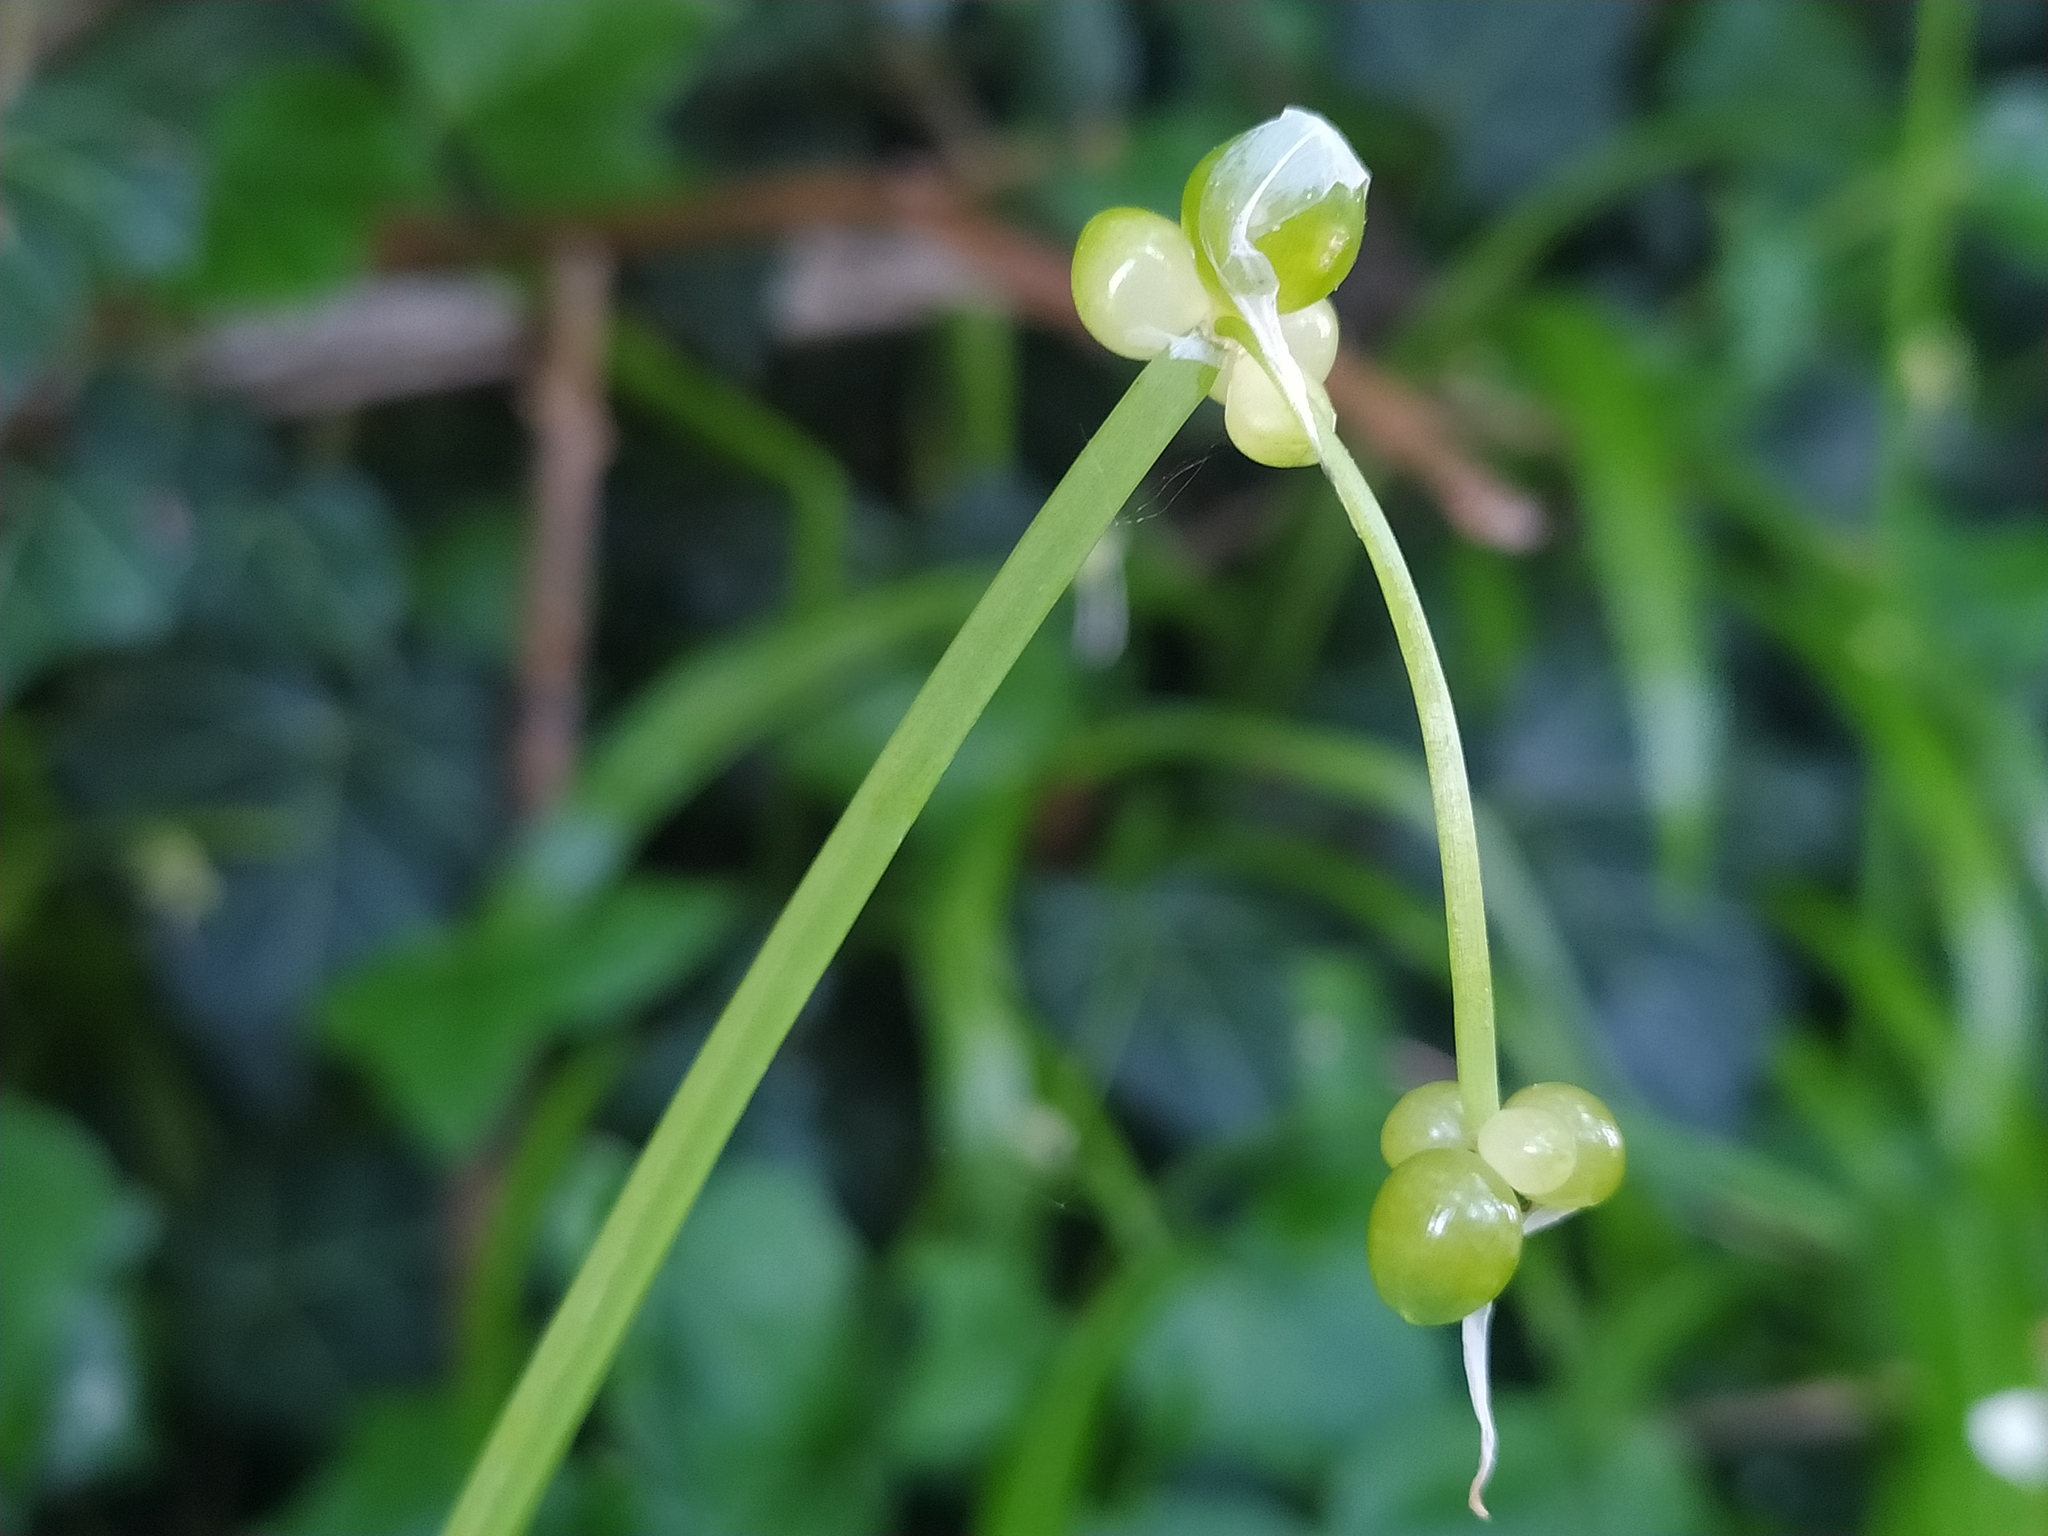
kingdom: Plantae
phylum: Tracheophyta
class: Liliopsida
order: Asparagales
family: Amaryllidaceae
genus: Allium
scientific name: Allium paradoxum
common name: Few-flowered garlic
